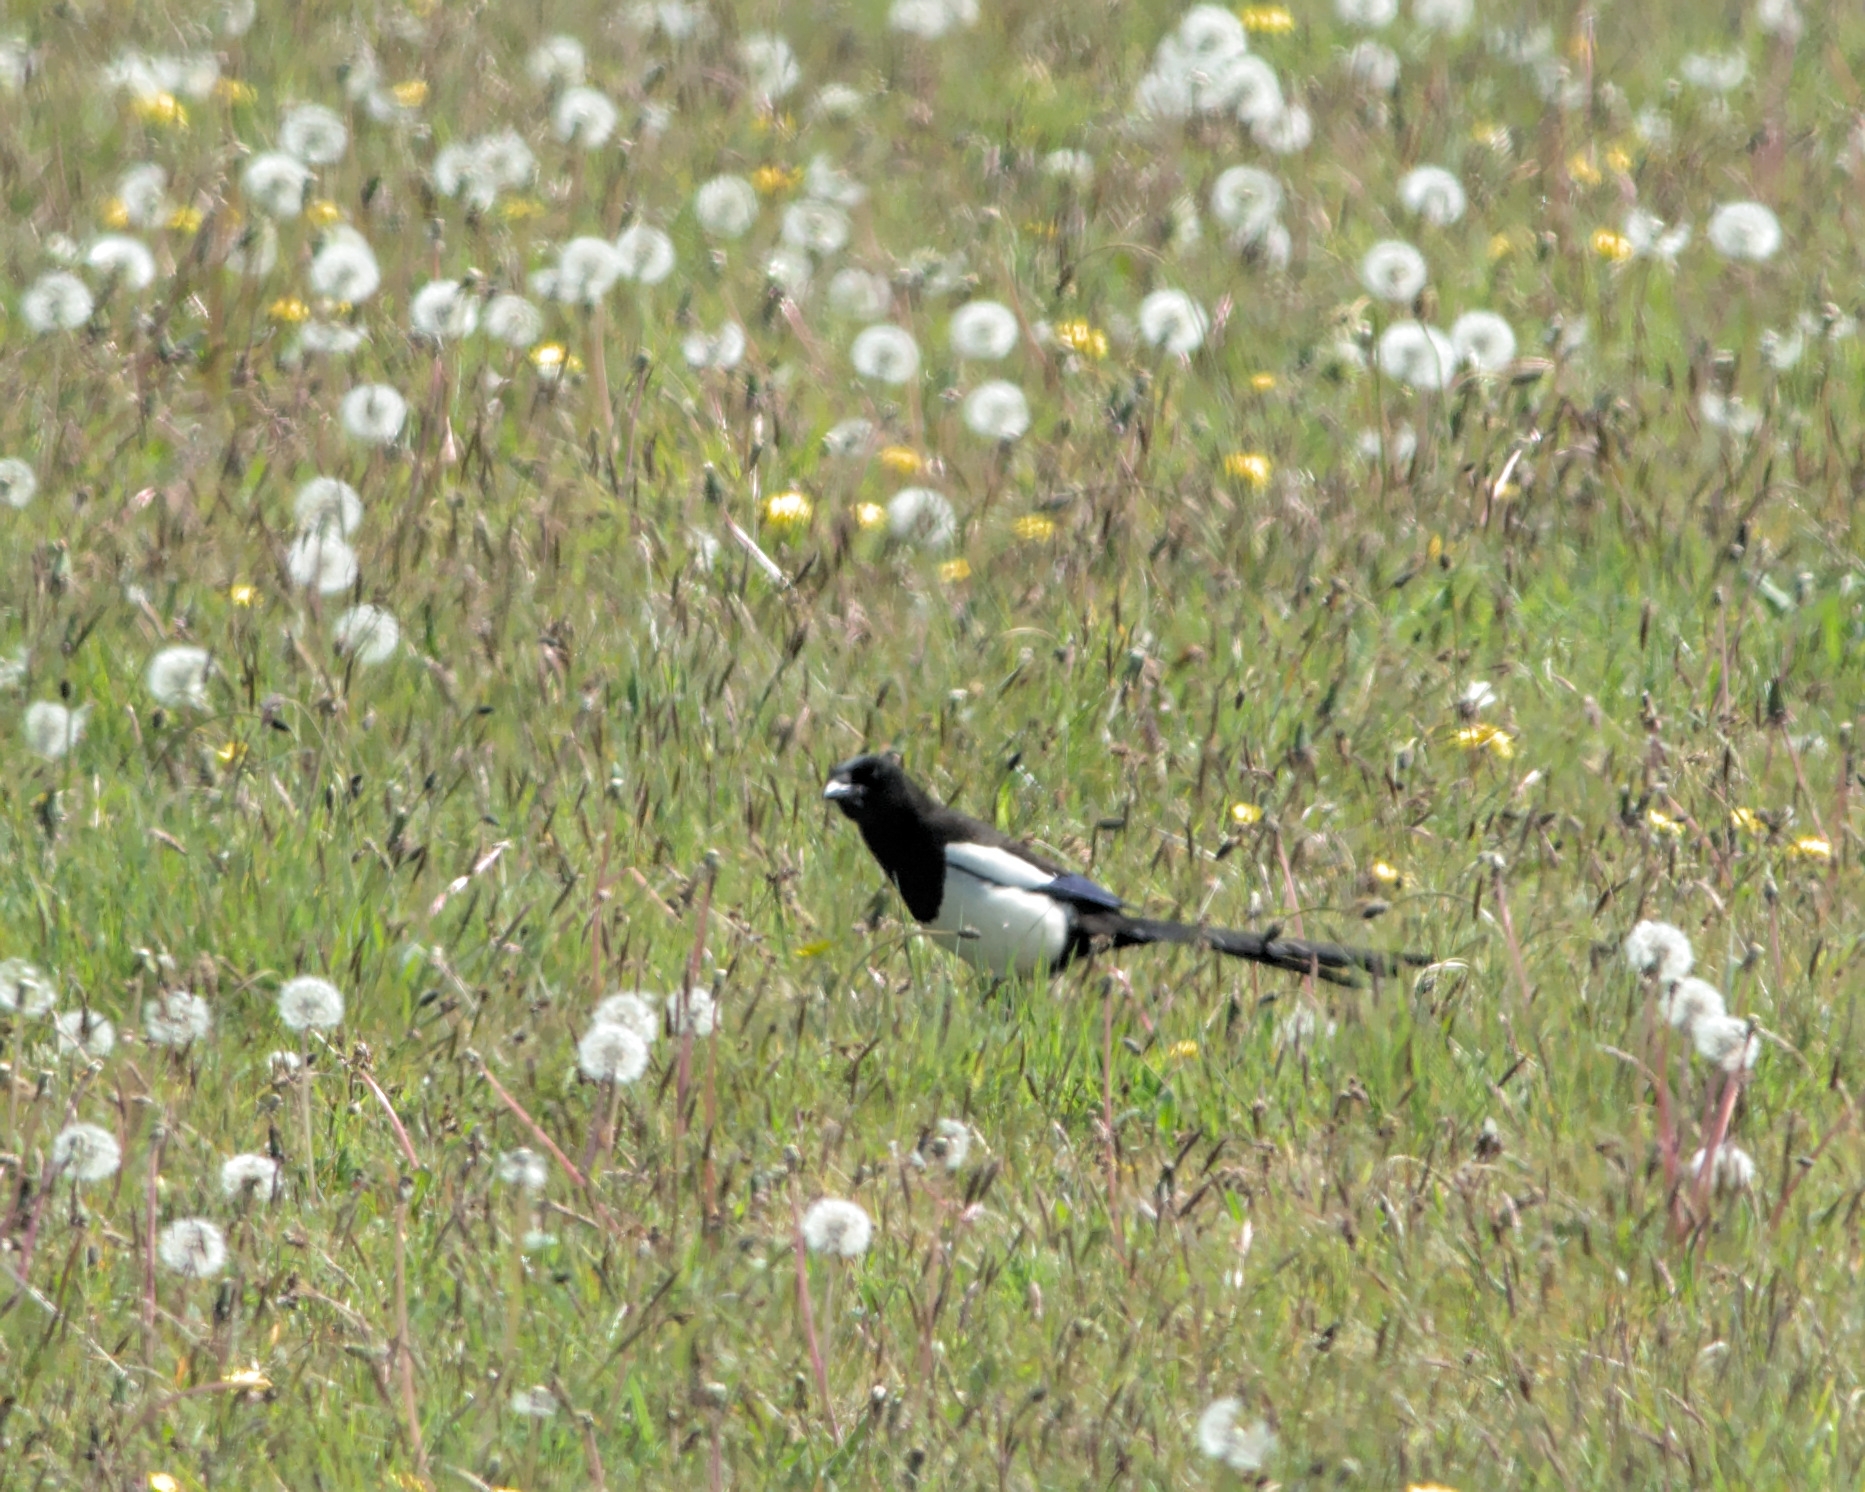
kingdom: Animalia
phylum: Chordata
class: Aves
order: Passeriformes
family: Corvidae
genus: Pica
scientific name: Pica pica
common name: Eurasian magpie
